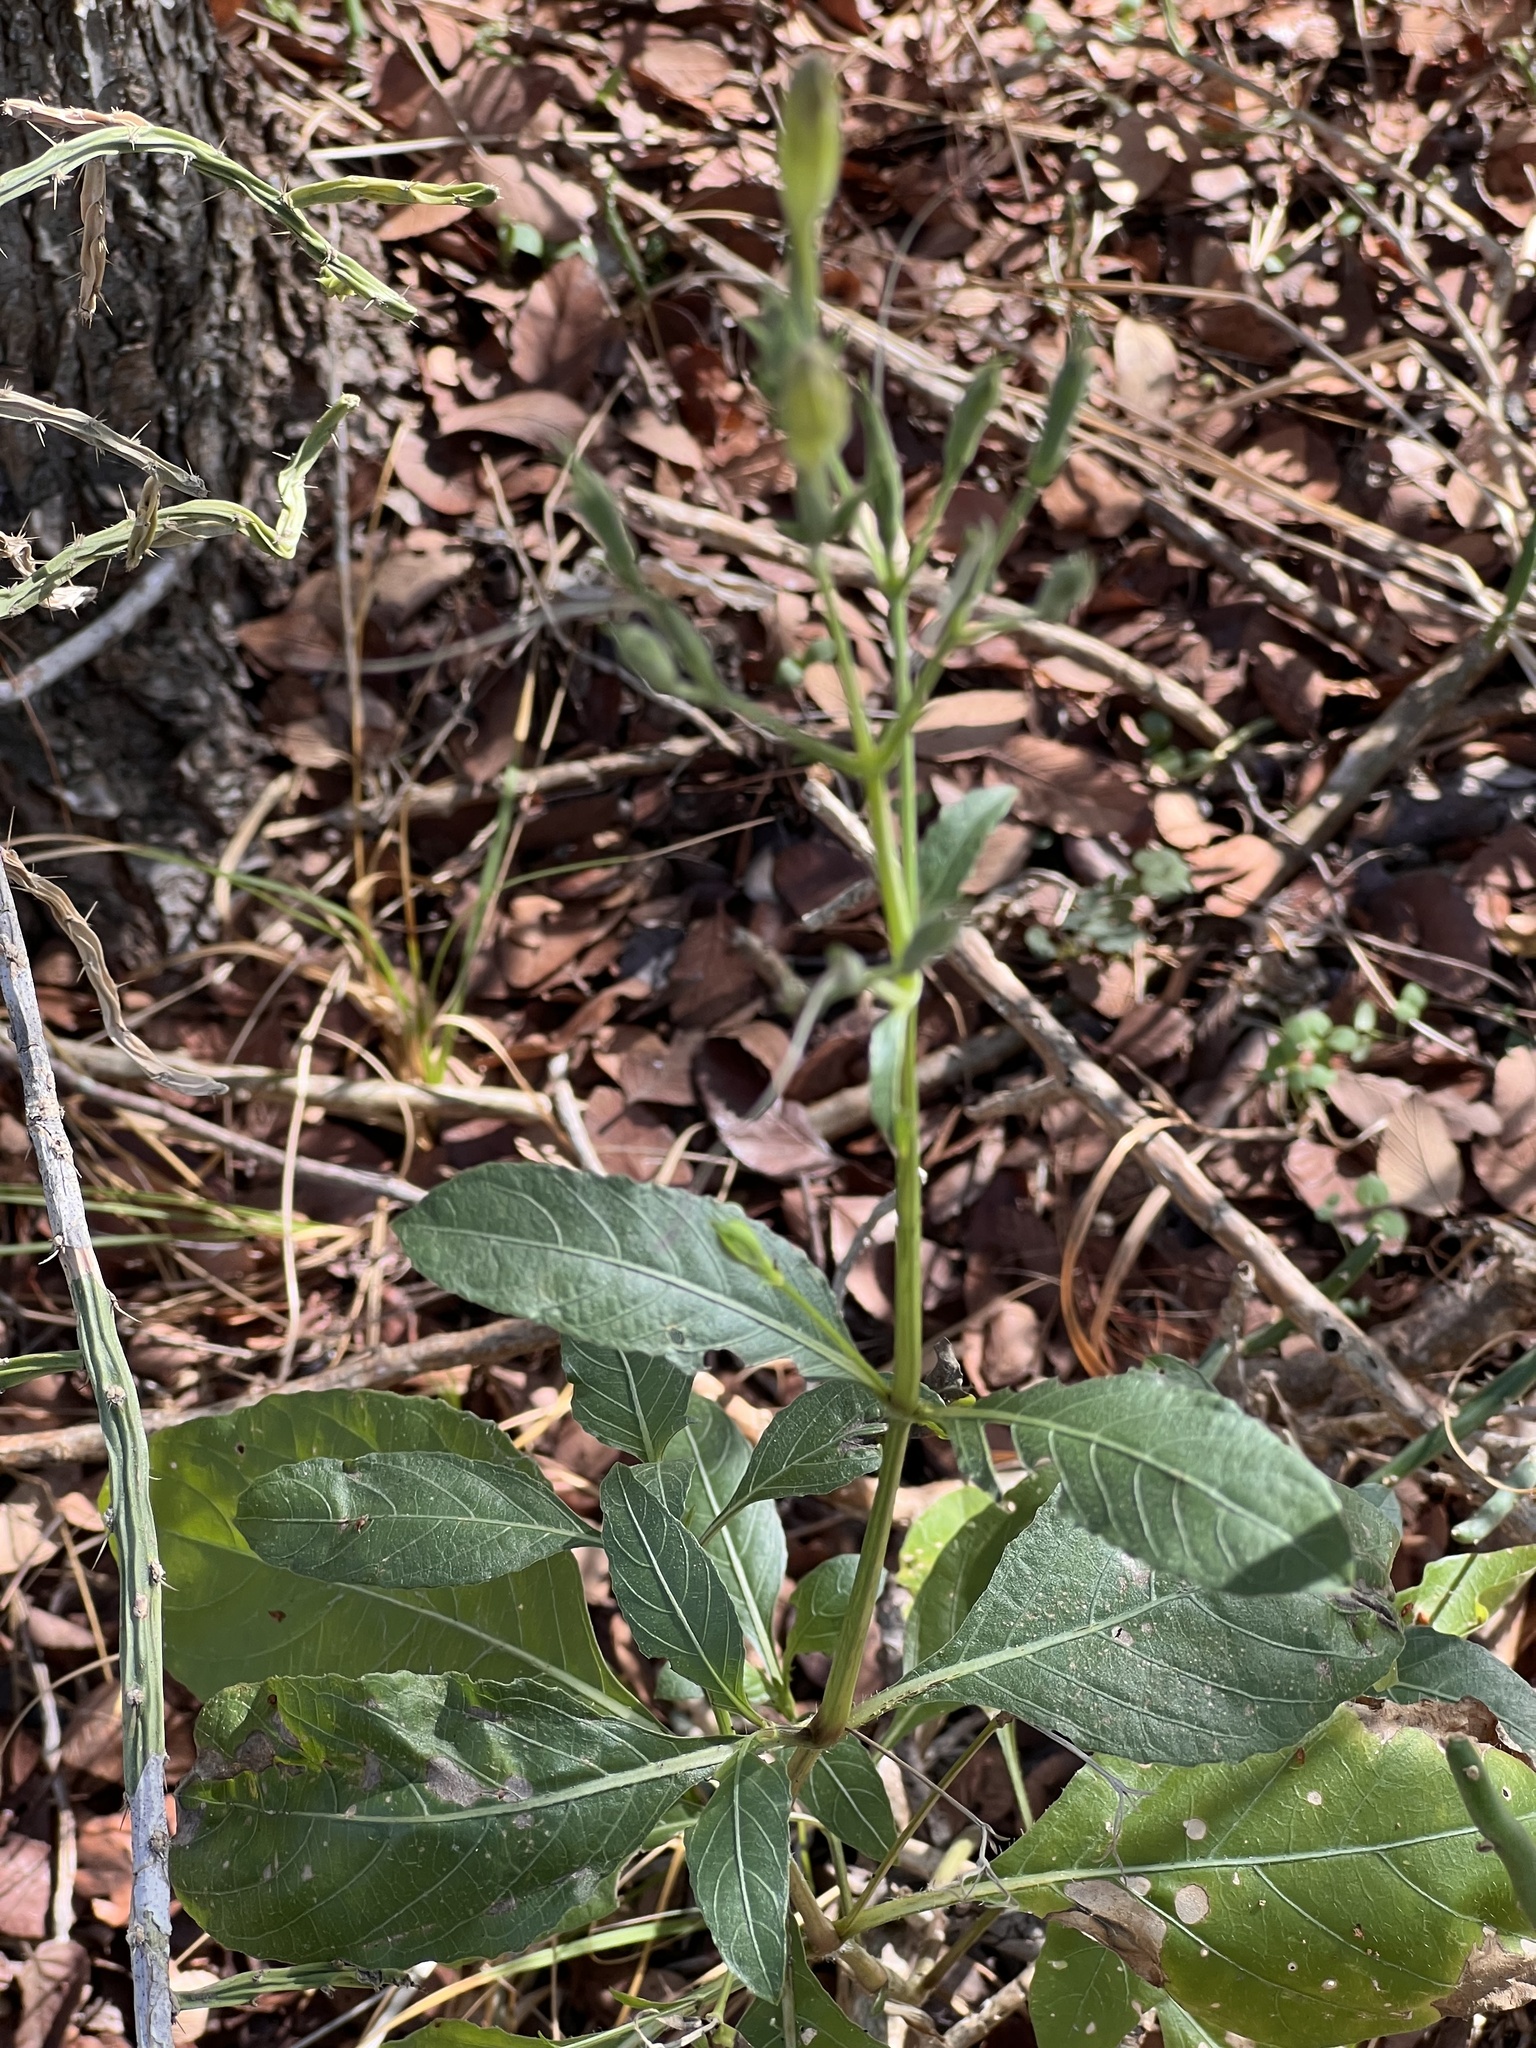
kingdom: Plantae
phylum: Tracheophyta
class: Magnoliopsida
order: Lamiales
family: Acanthaceae
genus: Ruellia
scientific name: Ruellia ciliatiflora
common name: Hairyflower wild petunia
